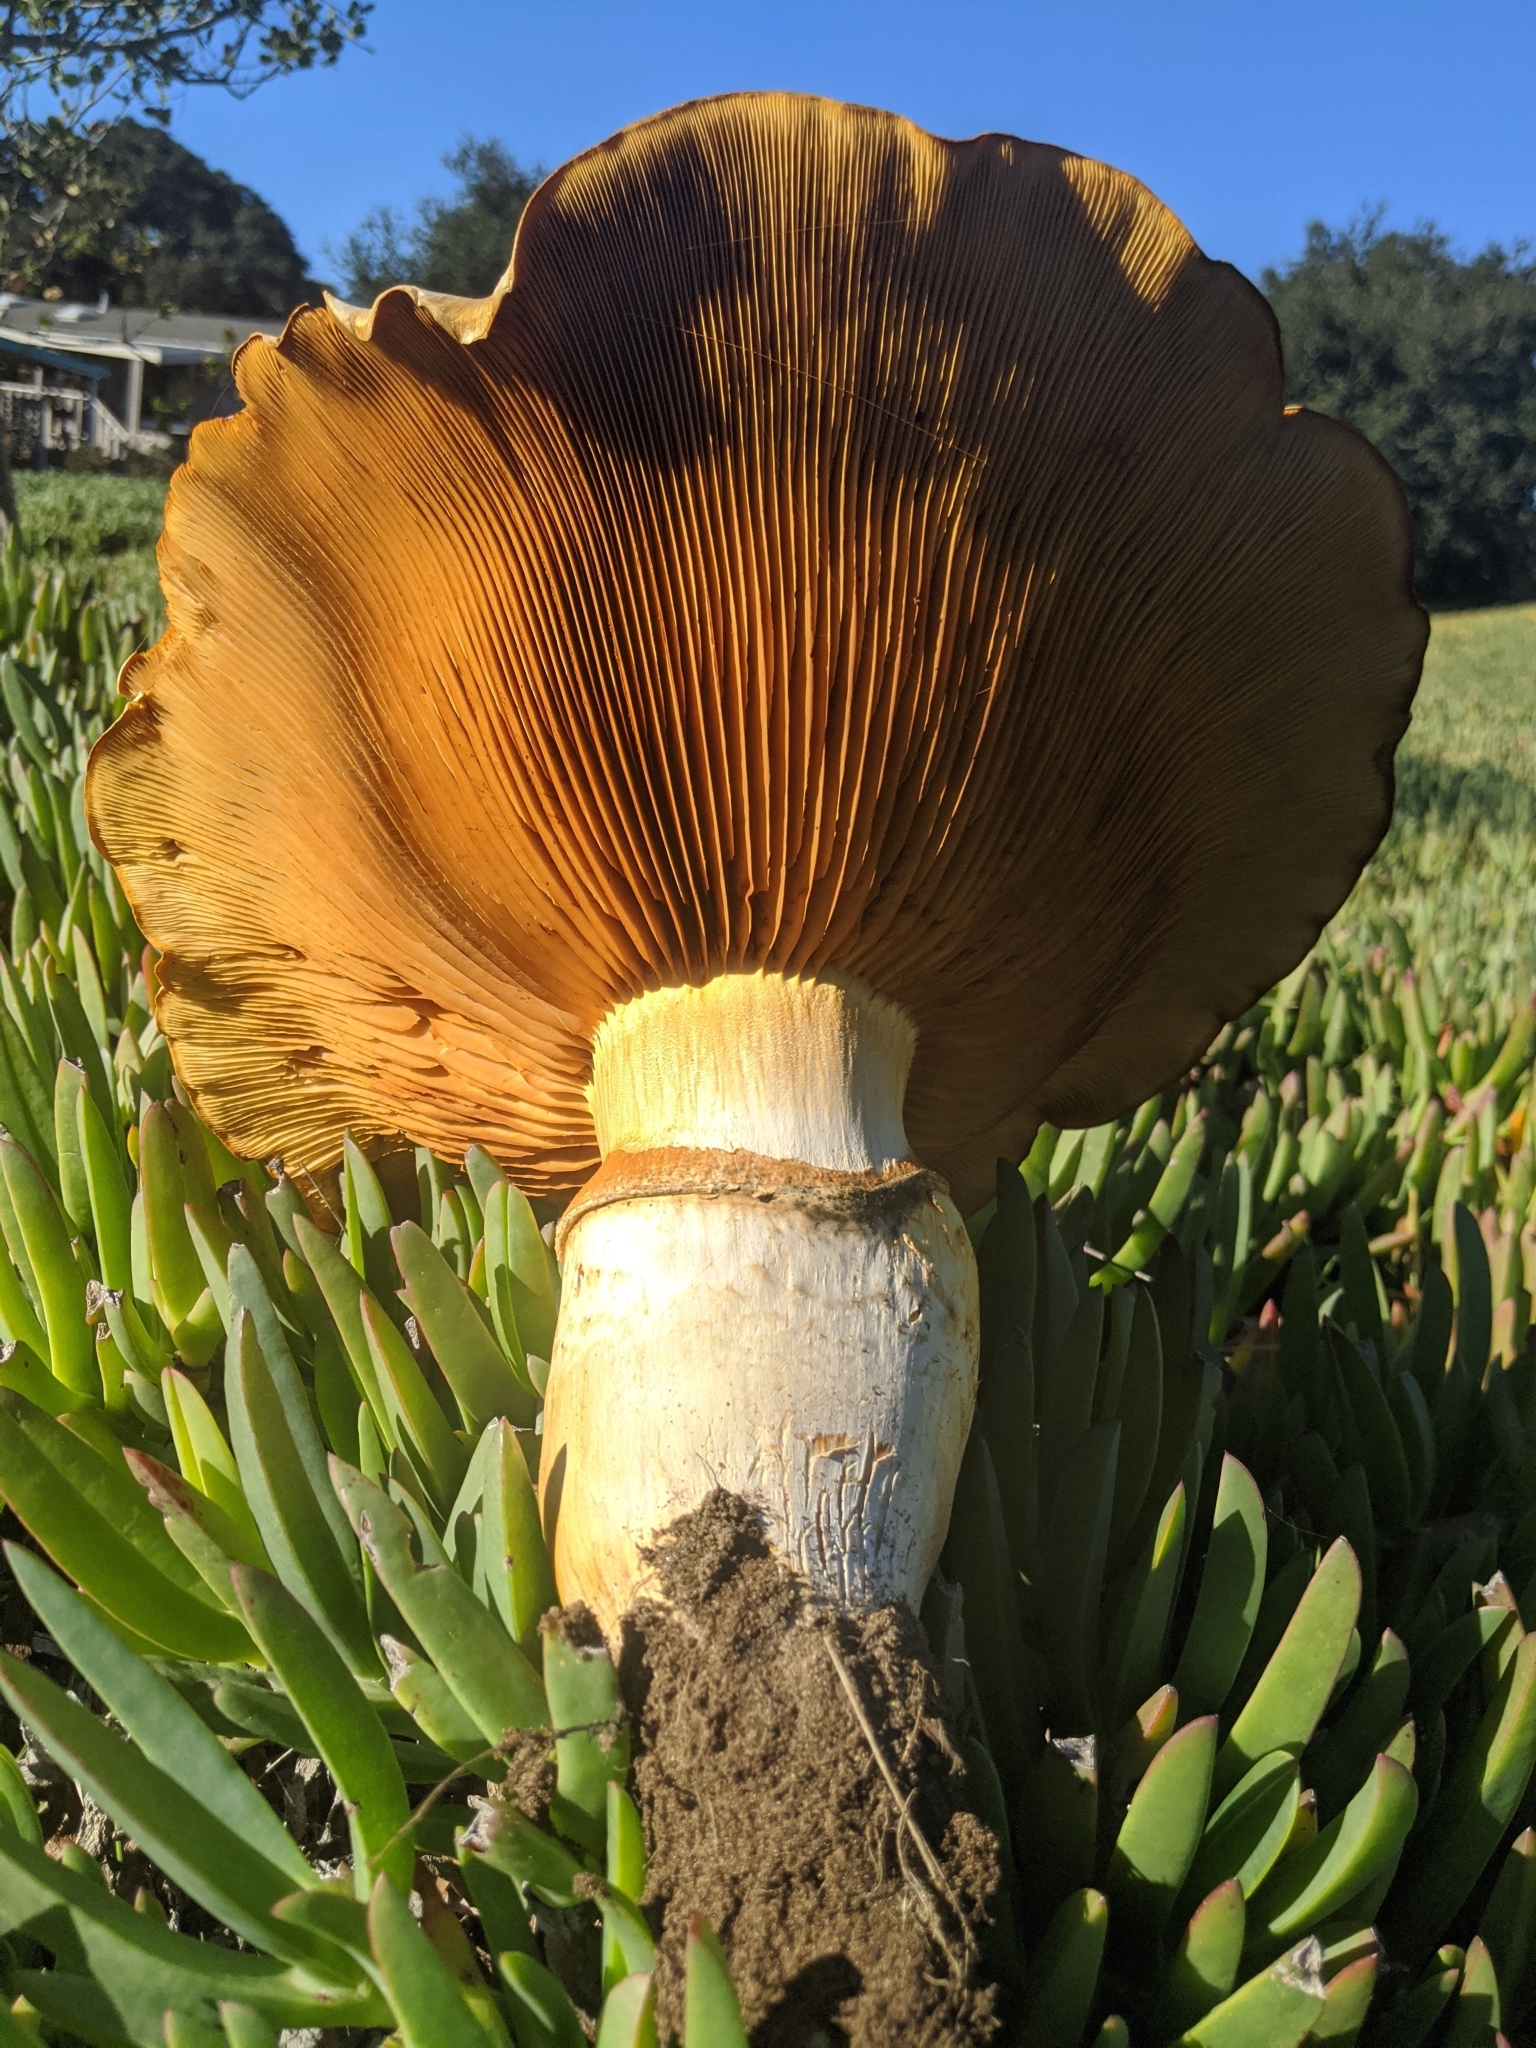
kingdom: Fungi
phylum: Basidiomycota
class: Agaricomycetes
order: Agaricales
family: Hymenogastraceae
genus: Gymnopilus
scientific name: Gymnopilus ventricosus
